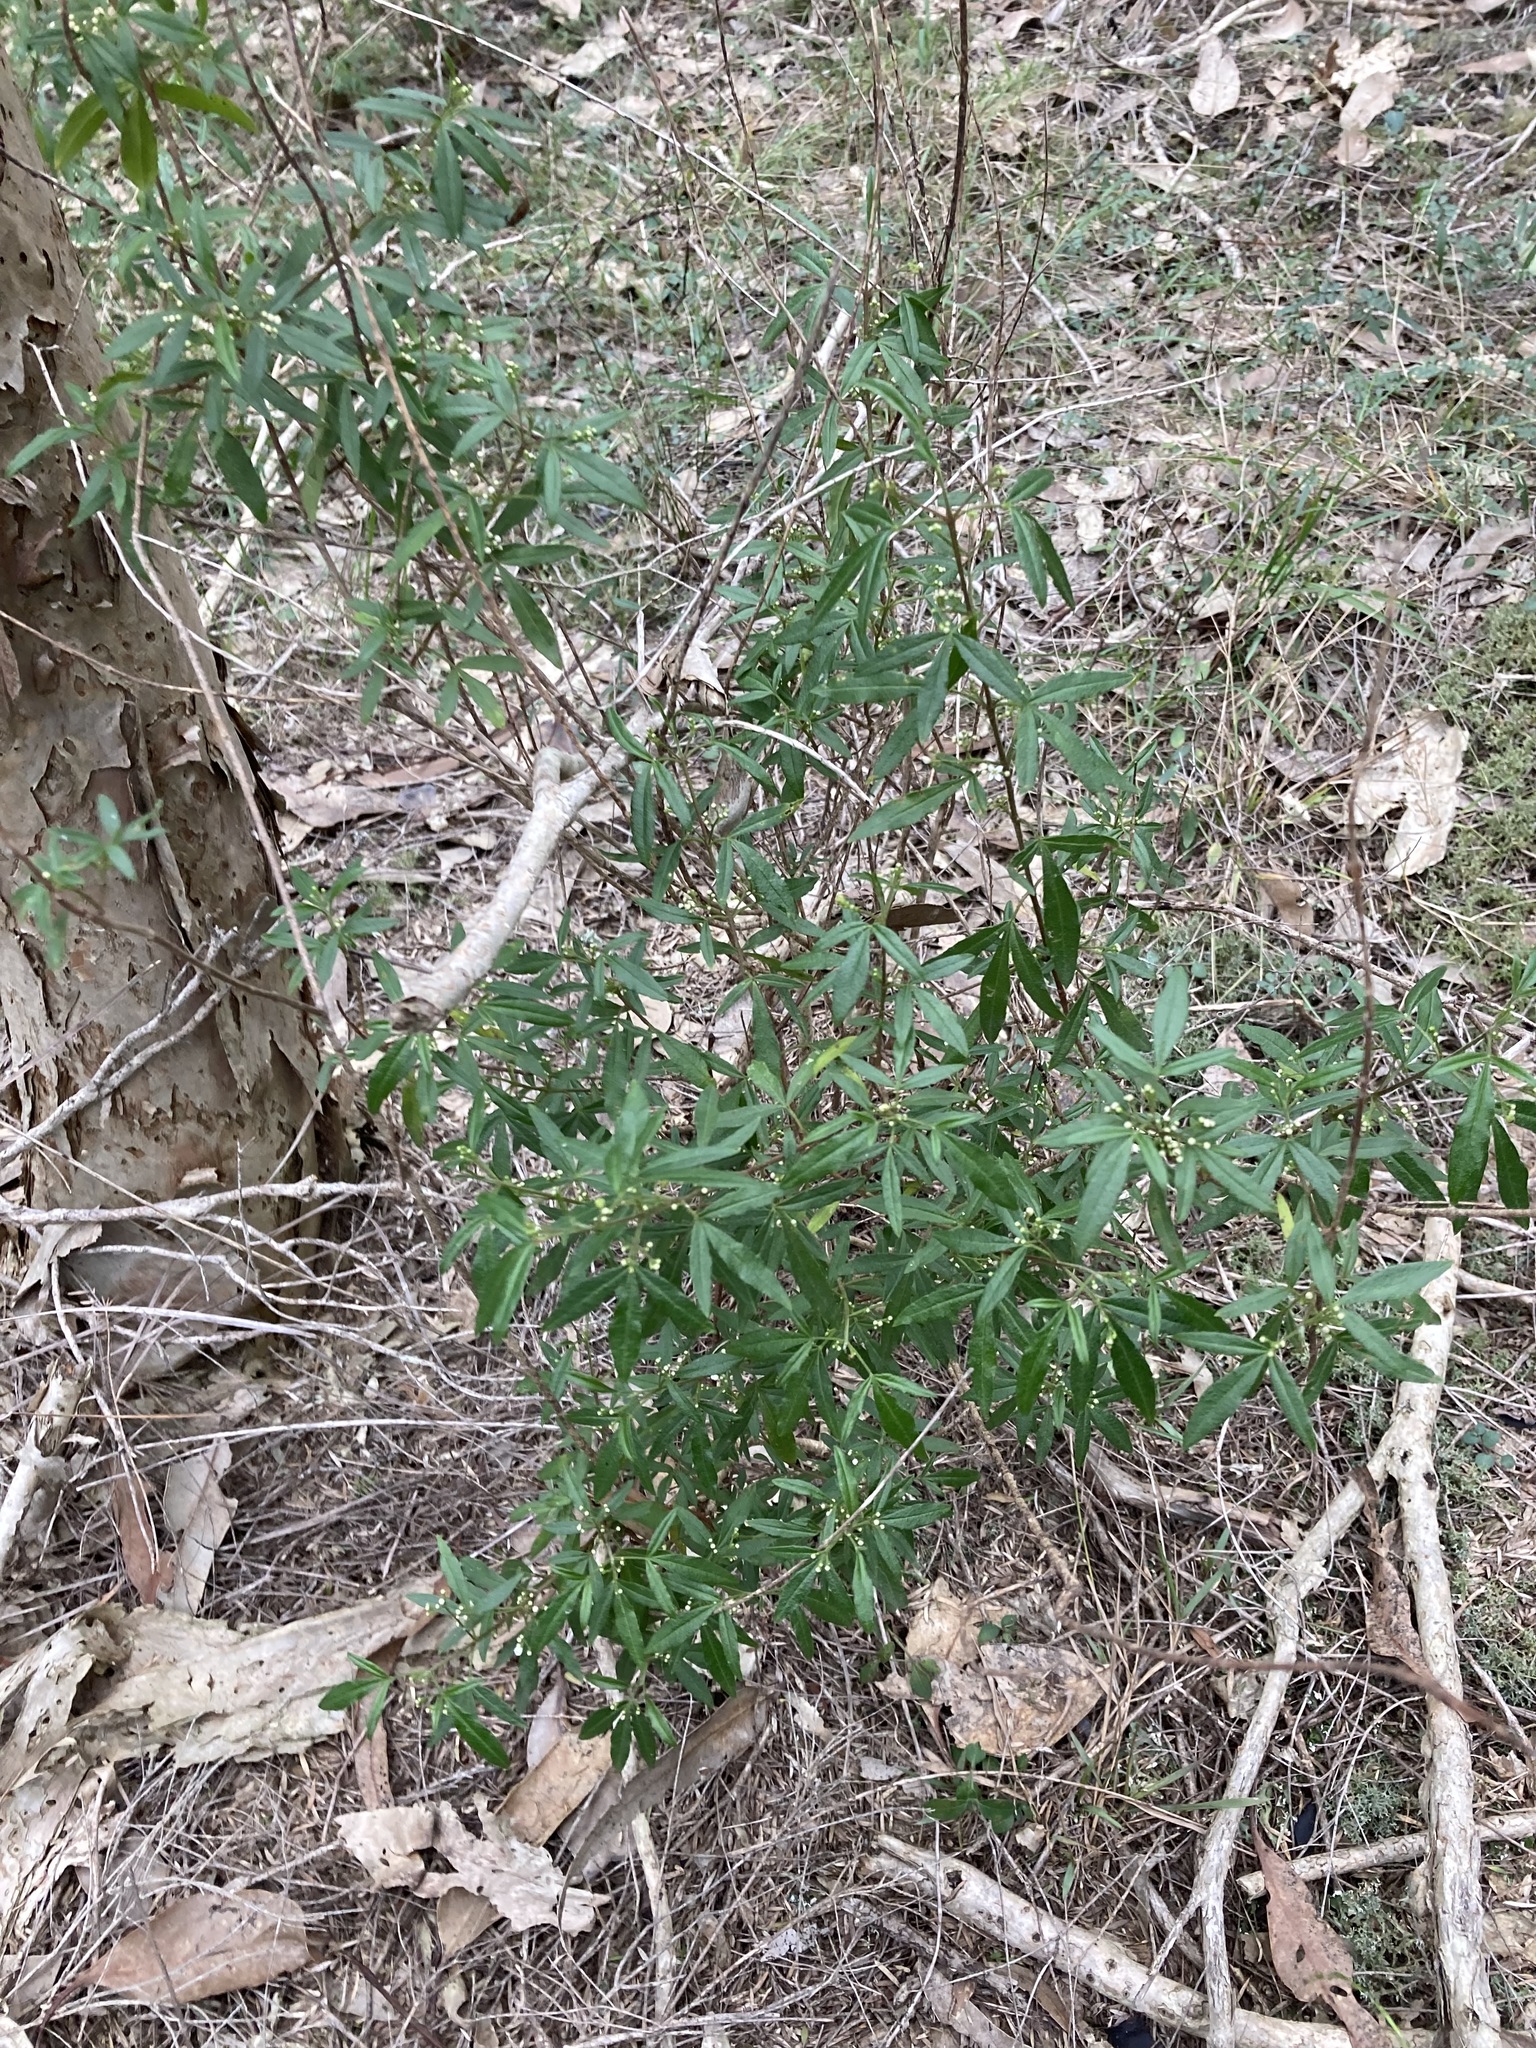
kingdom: Plantae
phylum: Tracheophyta
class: Magnoliopsida
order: Sapindales
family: Rutaceae
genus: Zieria
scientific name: Zieria smithii
